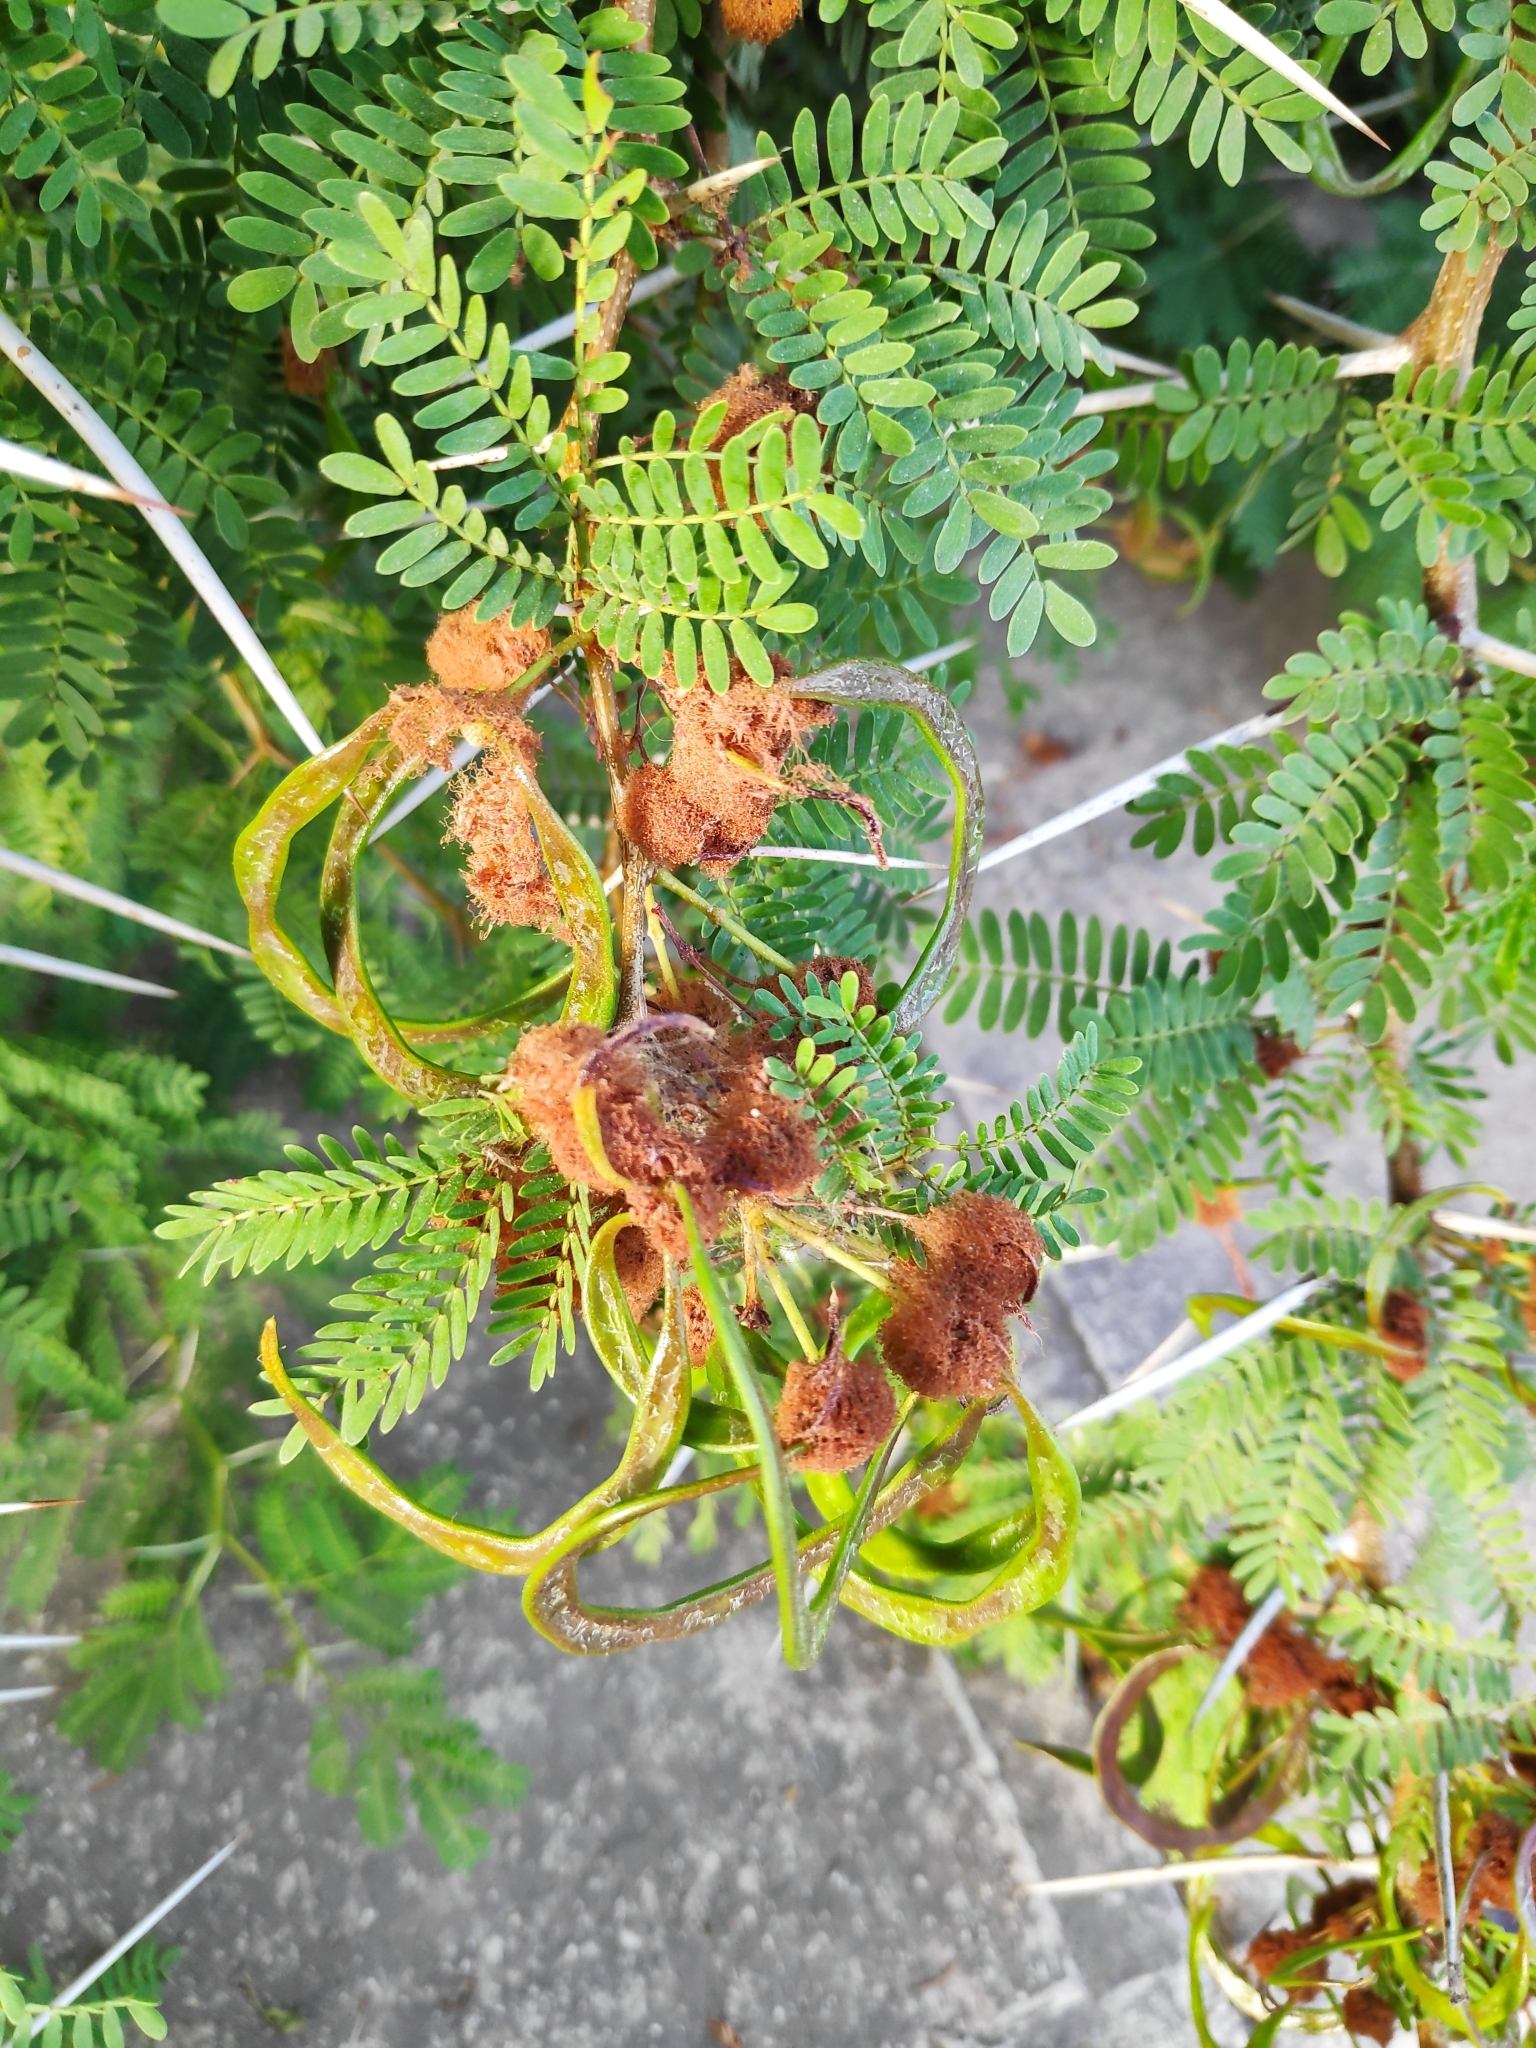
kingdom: Plantae
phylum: Tracheophyta
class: Magnoliopsida
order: Fabales
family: Fabaceae
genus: Vachellia
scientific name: Vachellia karroo
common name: Sweet thorn
